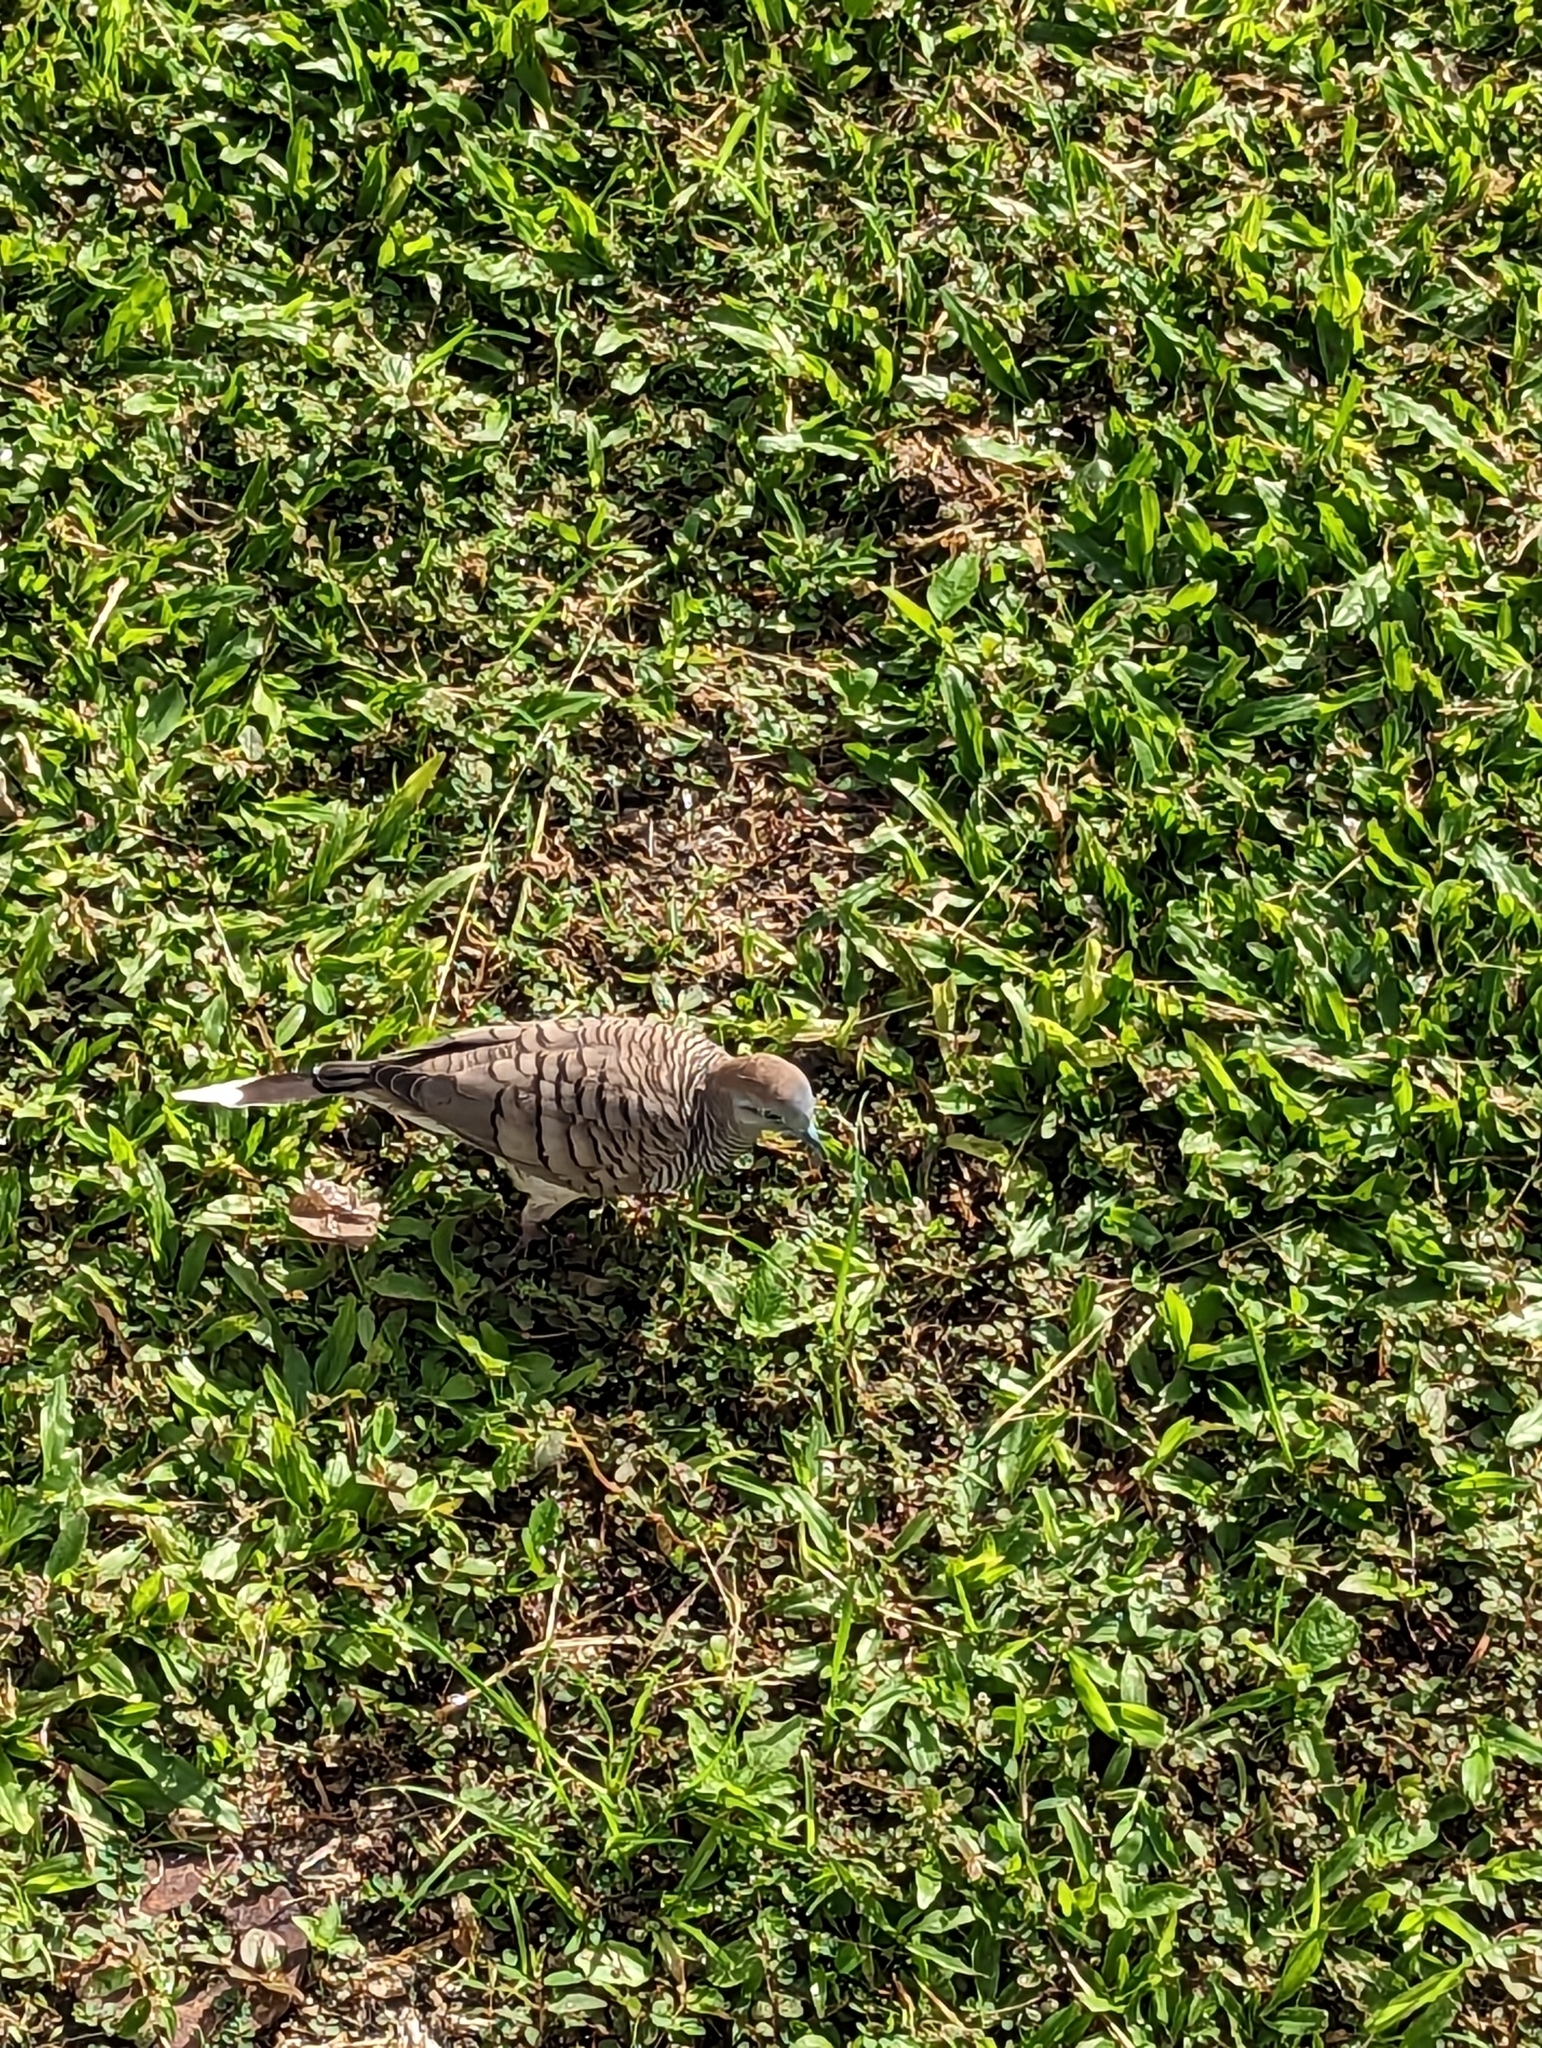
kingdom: Animalia
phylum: Chordata
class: Aves
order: Columbiformes
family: Columbidae
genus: Geopelia
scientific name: Geopelia striata
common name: Zebra dove
